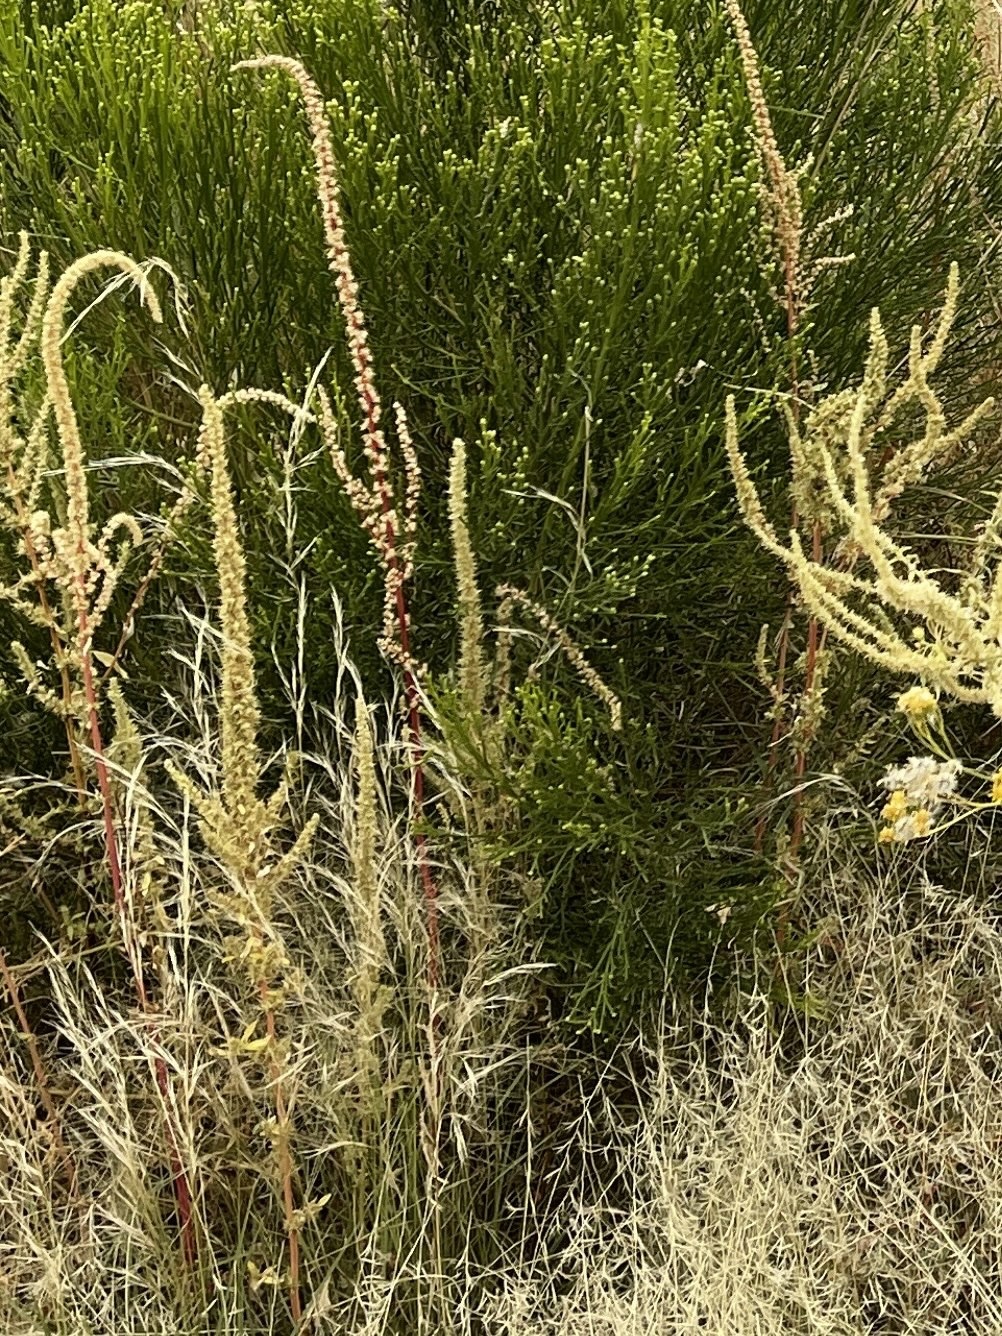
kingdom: Plantae
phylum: Tracheophyta
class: Magnoliopsida
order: Caryophyllales
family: Amaranthaceae
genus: Amaranthus
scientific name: Amaranthus palmeri
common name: Dioecious amaranth
